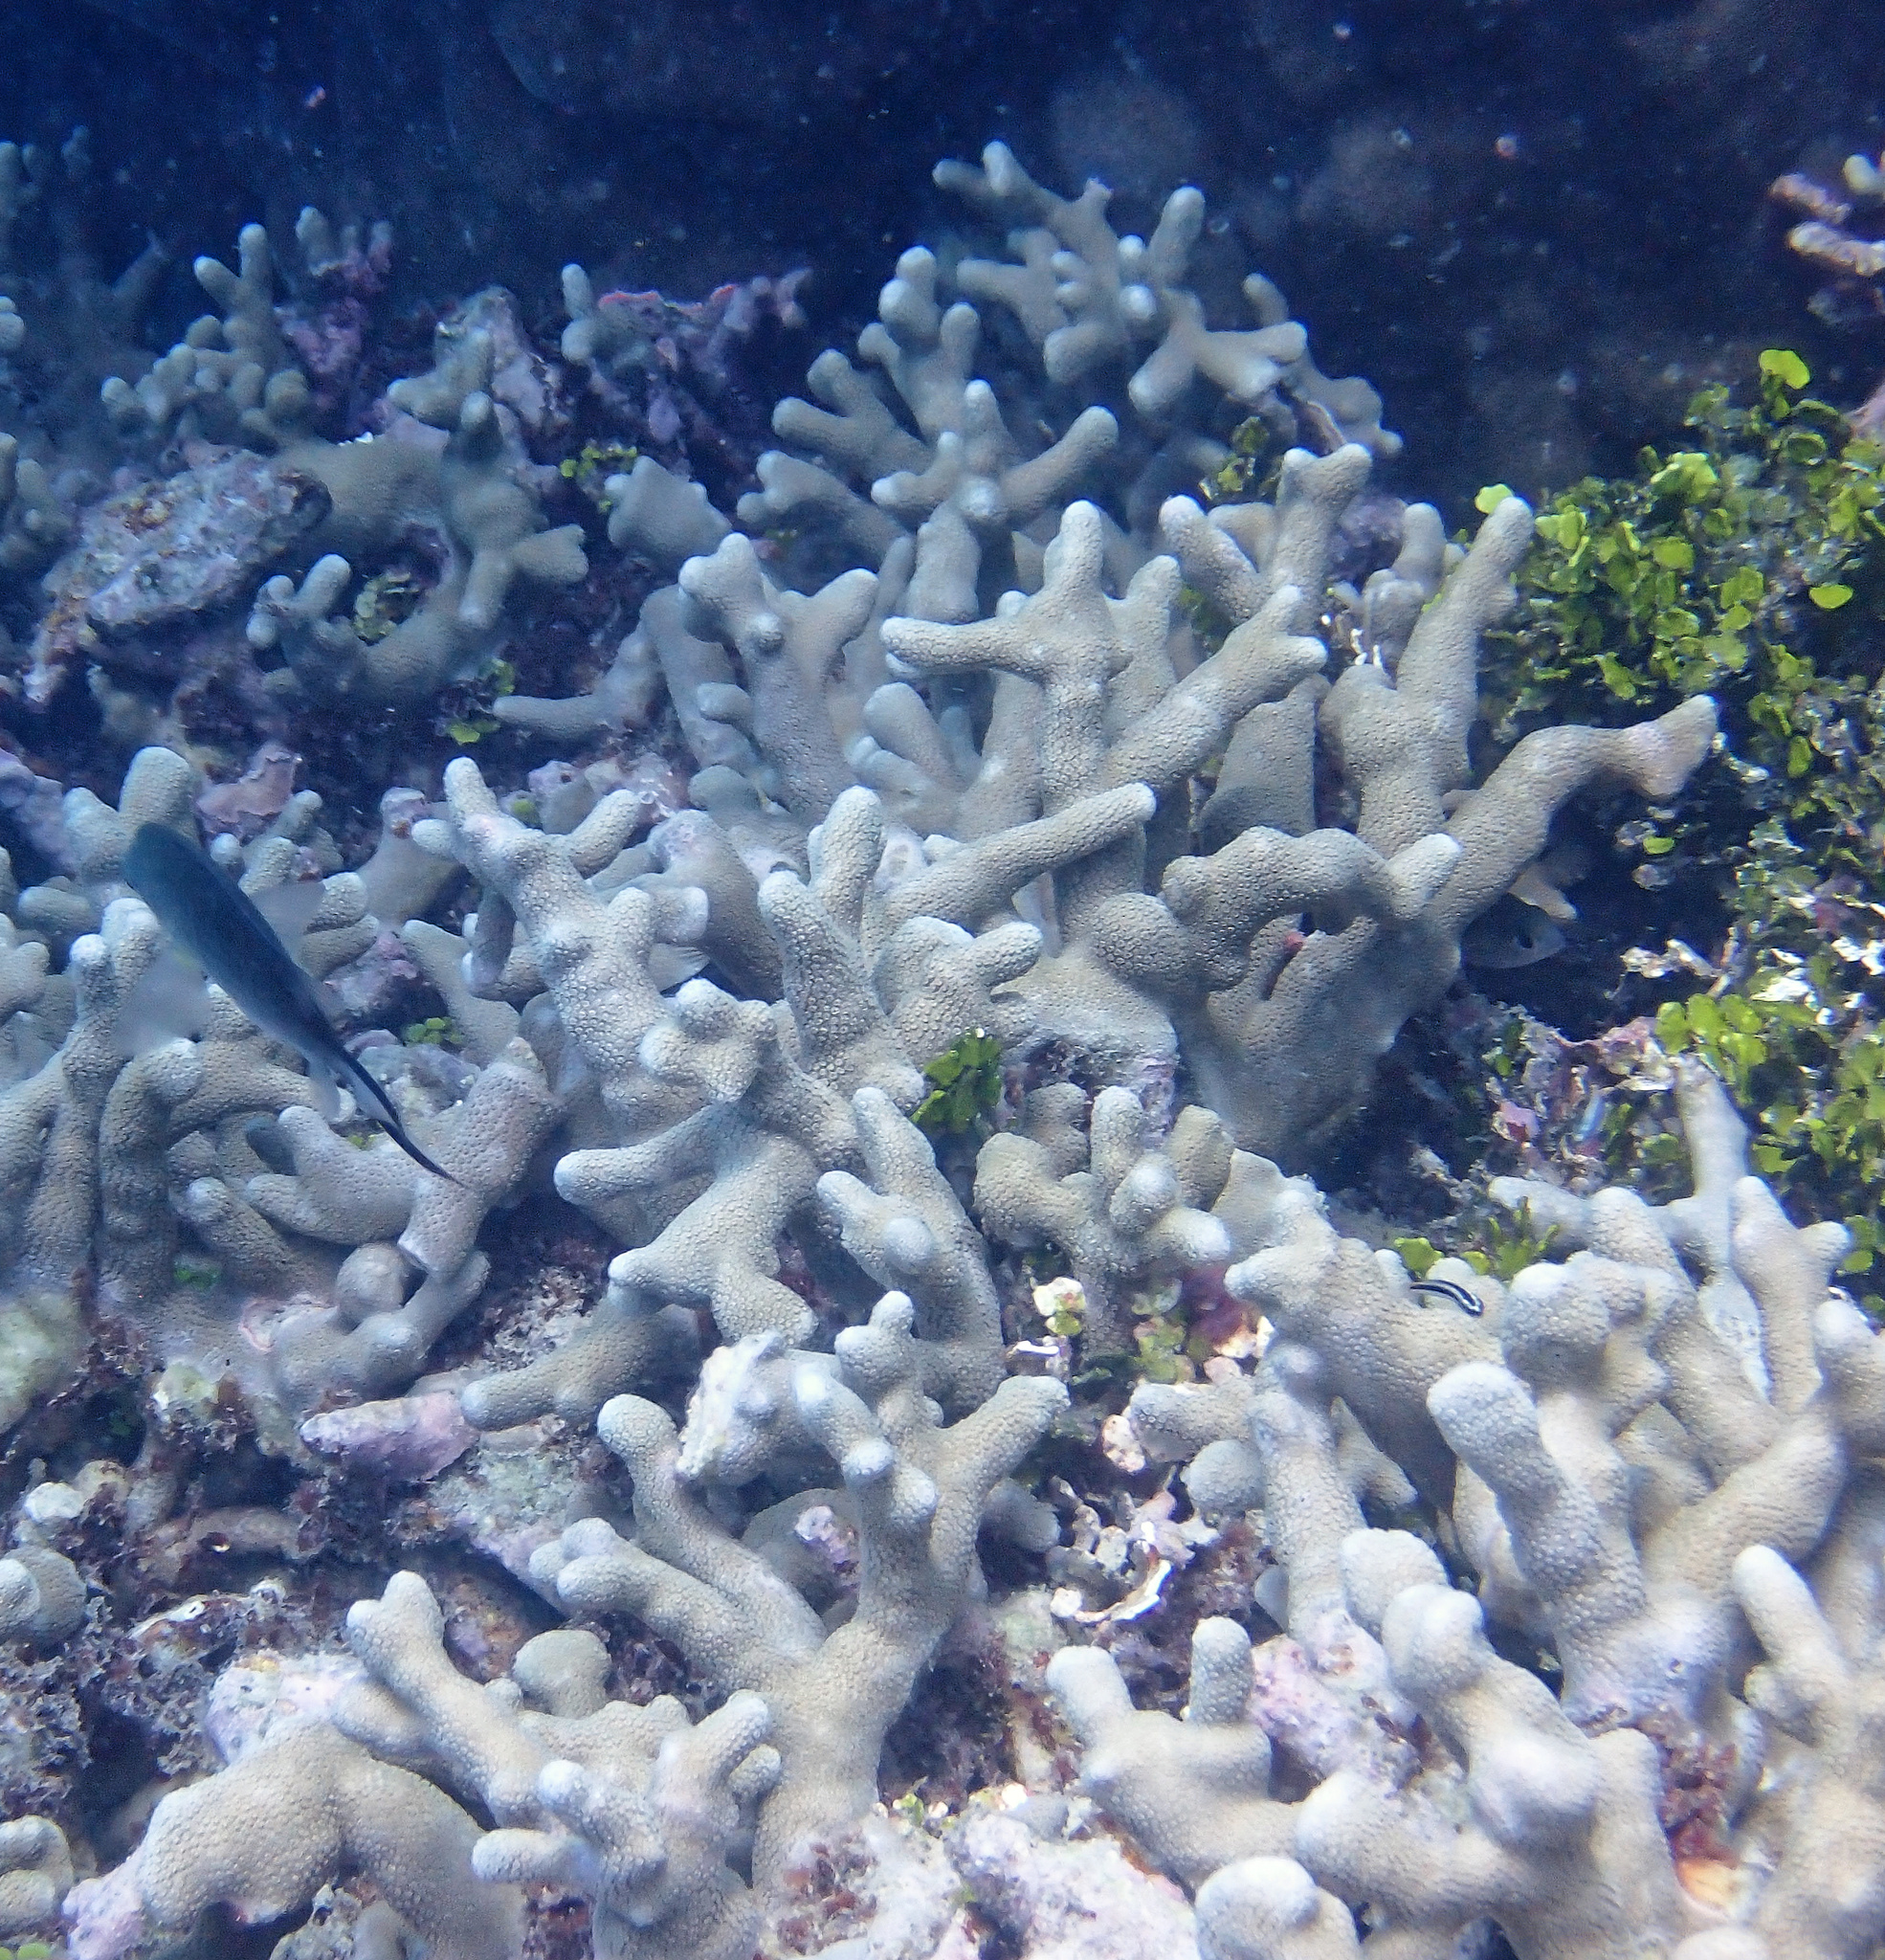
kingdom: Animalia
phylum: Cnidaria
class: Anthozoa
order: Scleractinia
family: Poritidae
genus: Porites
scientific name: Porites cylindrica
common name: Hump coral
